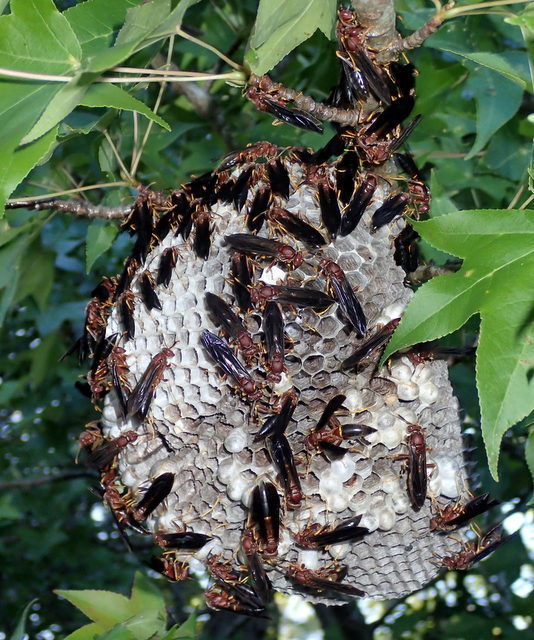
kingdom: Animalia
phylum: Arthropoda
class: Insecta
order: Hymenoptera
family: Eumenidae
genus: Polistes
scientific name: Polistes annularis
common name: Ringed paper wasp
